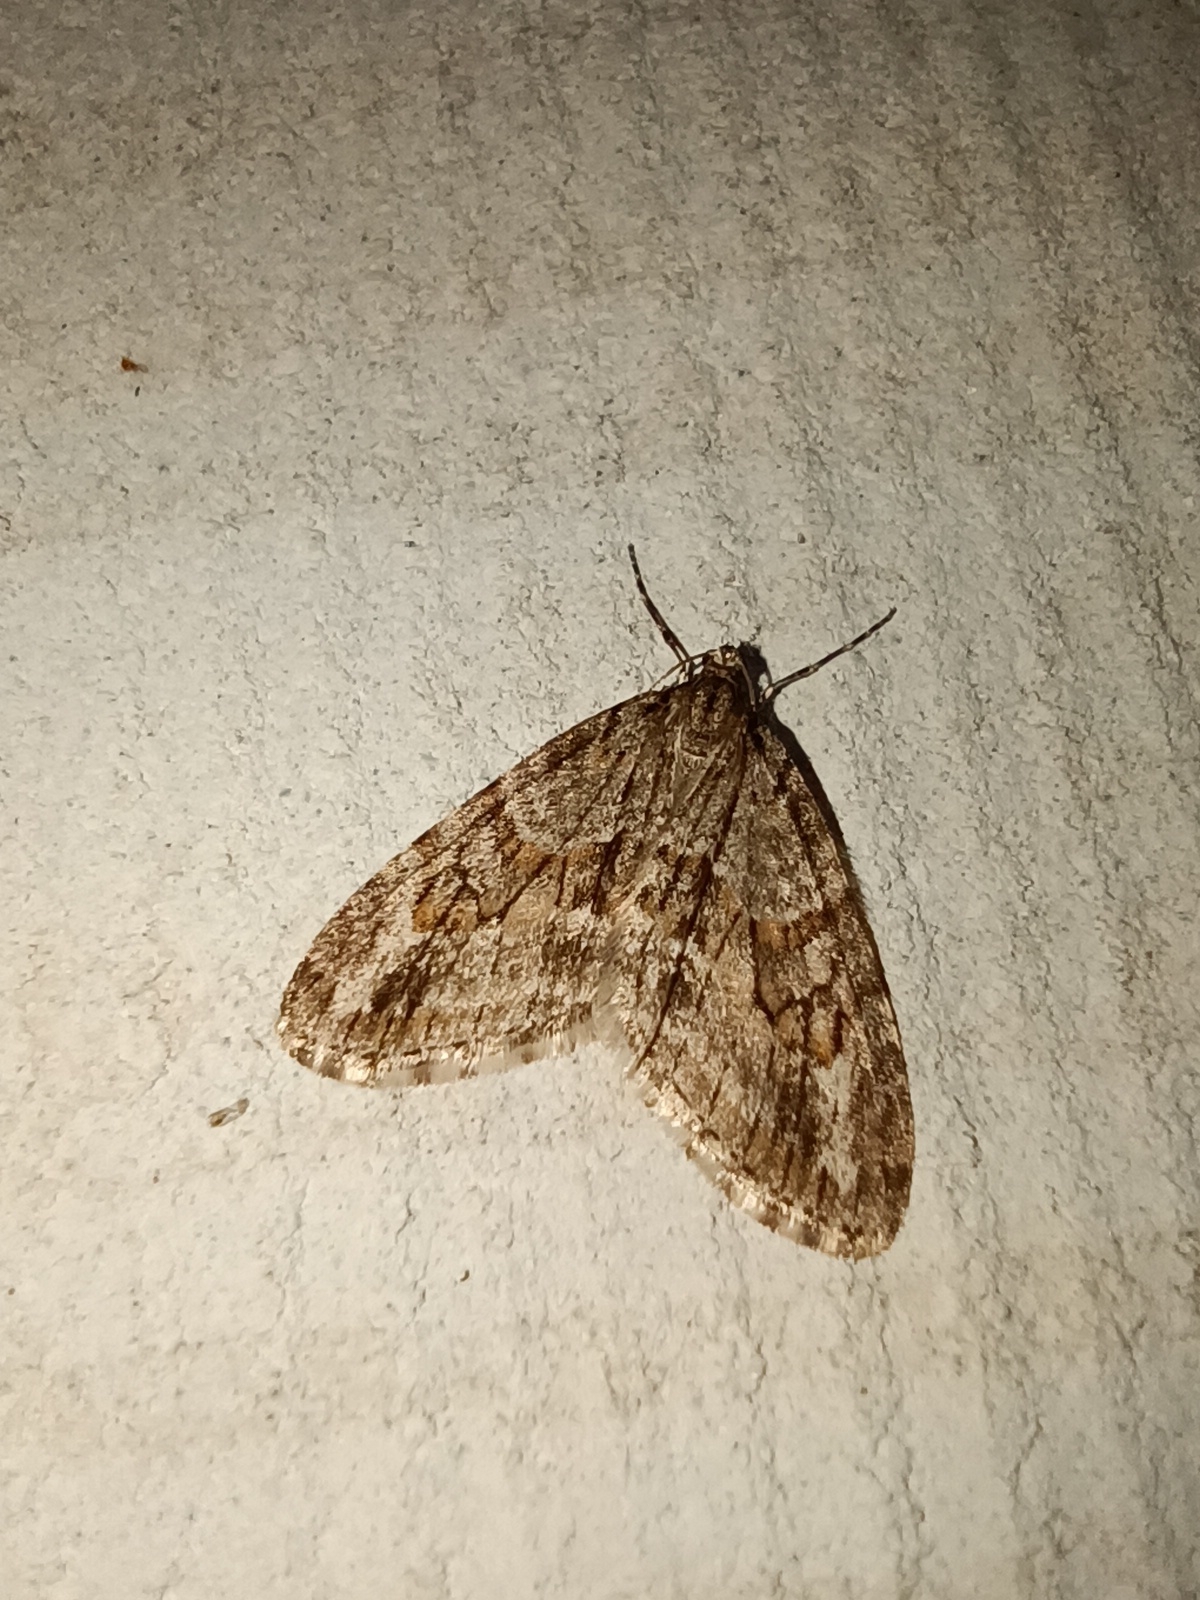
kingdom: Animalia
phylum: Arthropoda
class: Insecta
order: Lepidoptera
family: Geometridae
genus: Trichopteryx
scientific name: Trichopteryx polycommata
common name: Barred tooth-striped
